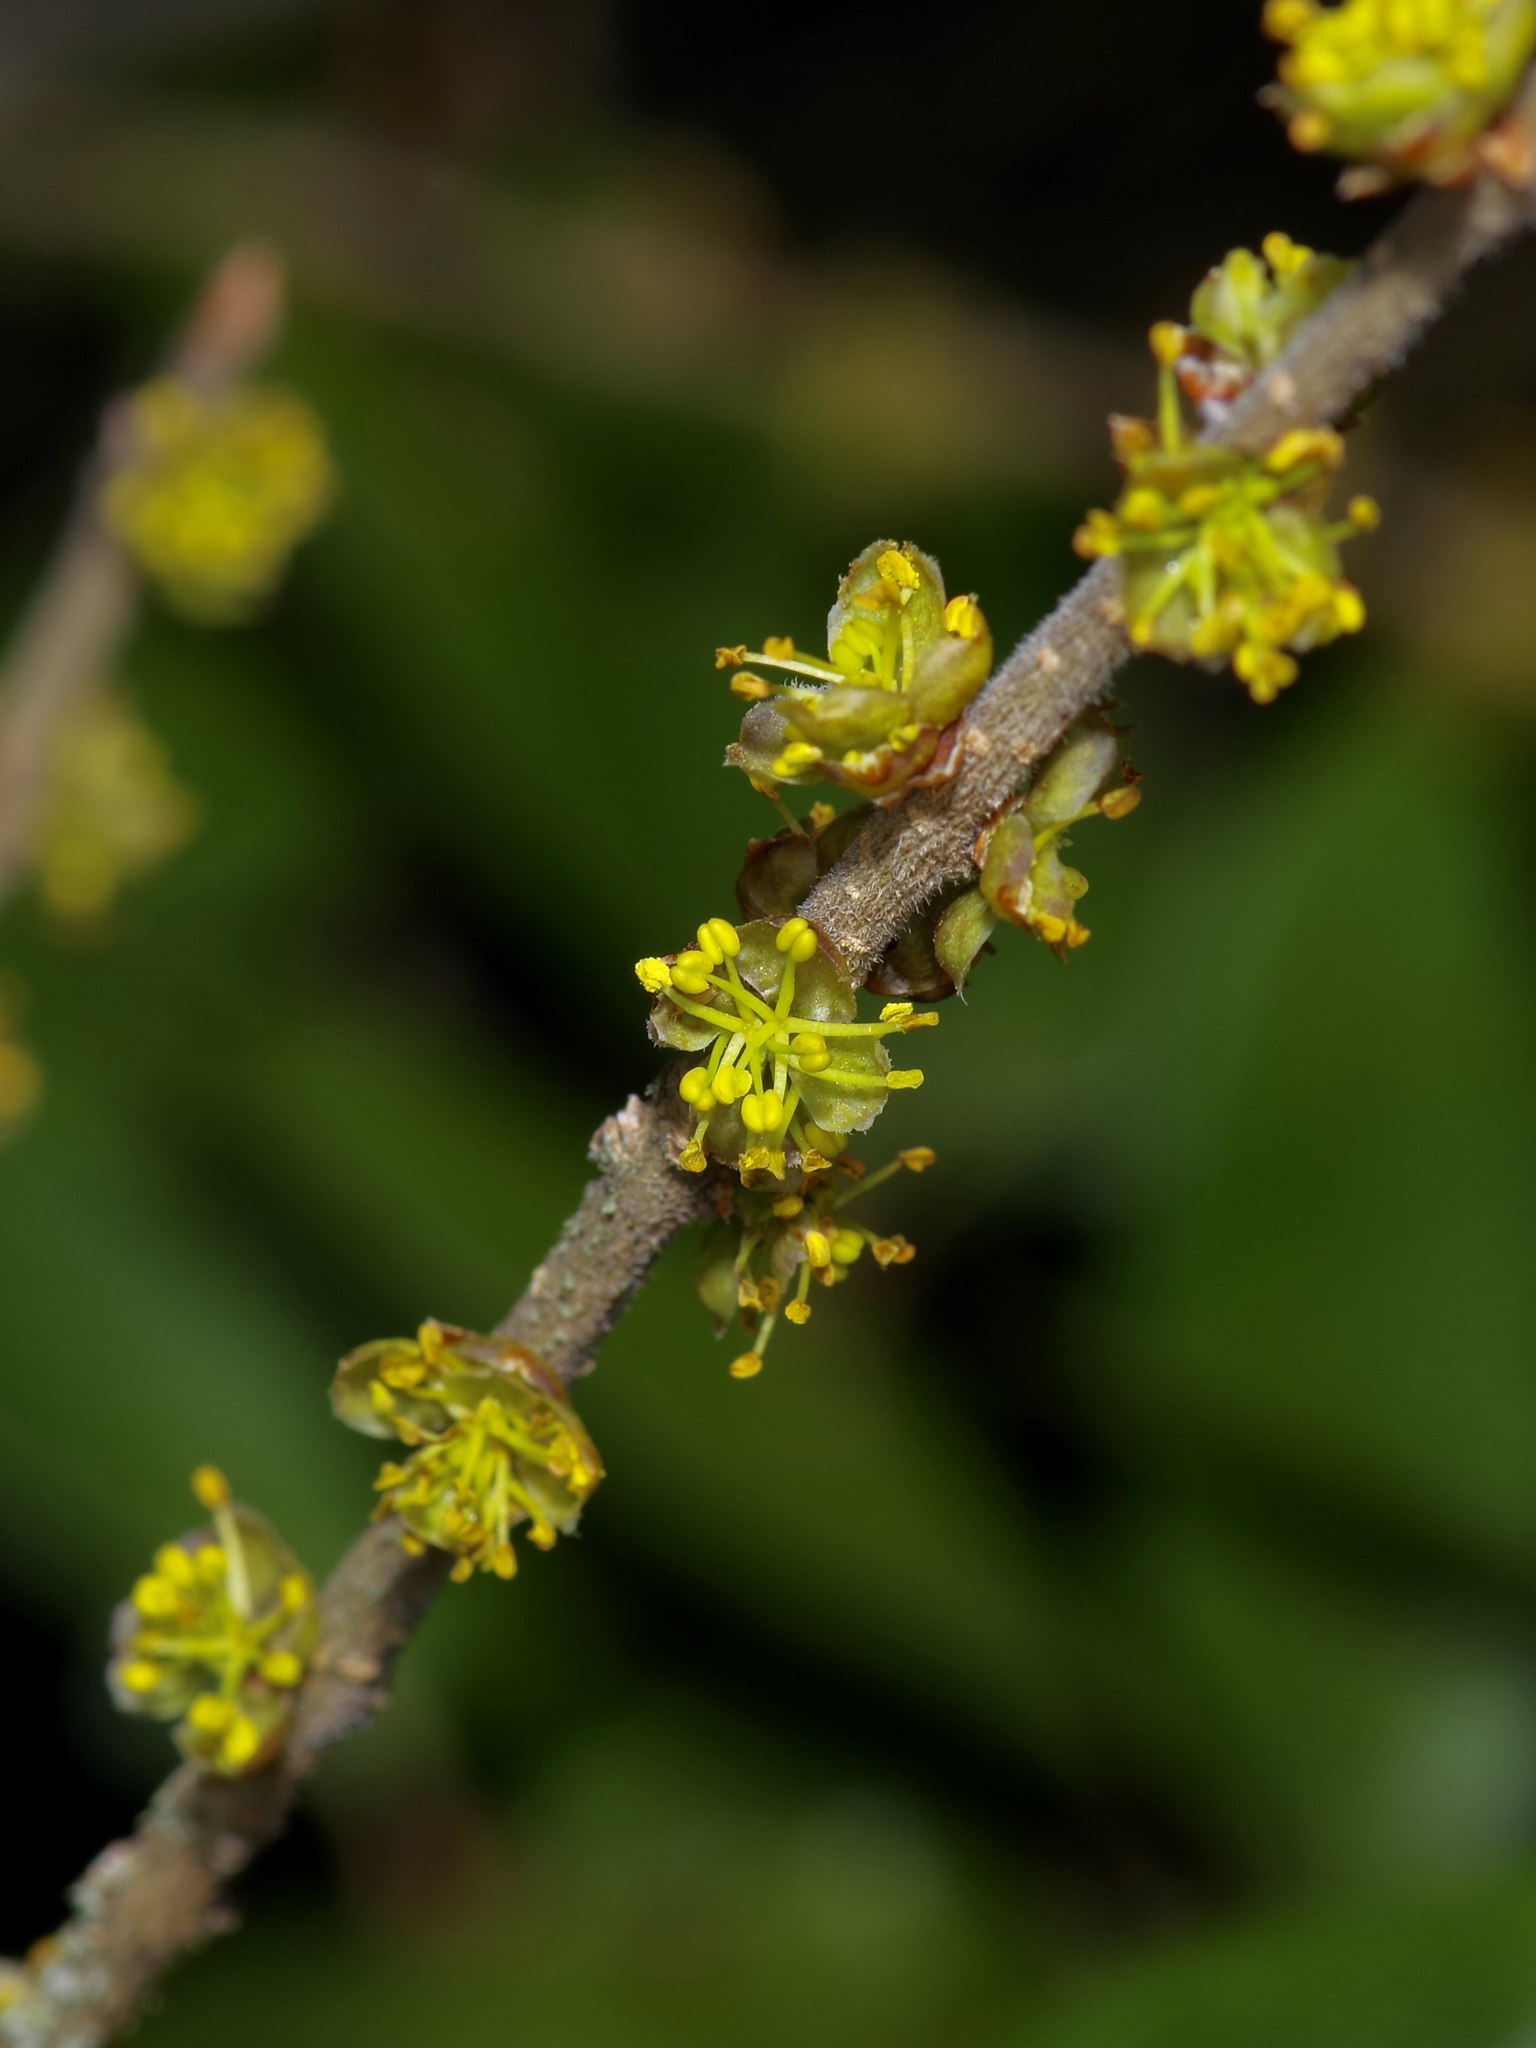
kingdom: Plantae
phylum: Tracheophyta
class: Magnoliopsida
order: Lamiales
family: Oleaceae
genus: Forestiera
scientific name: Forestiera pubescens
